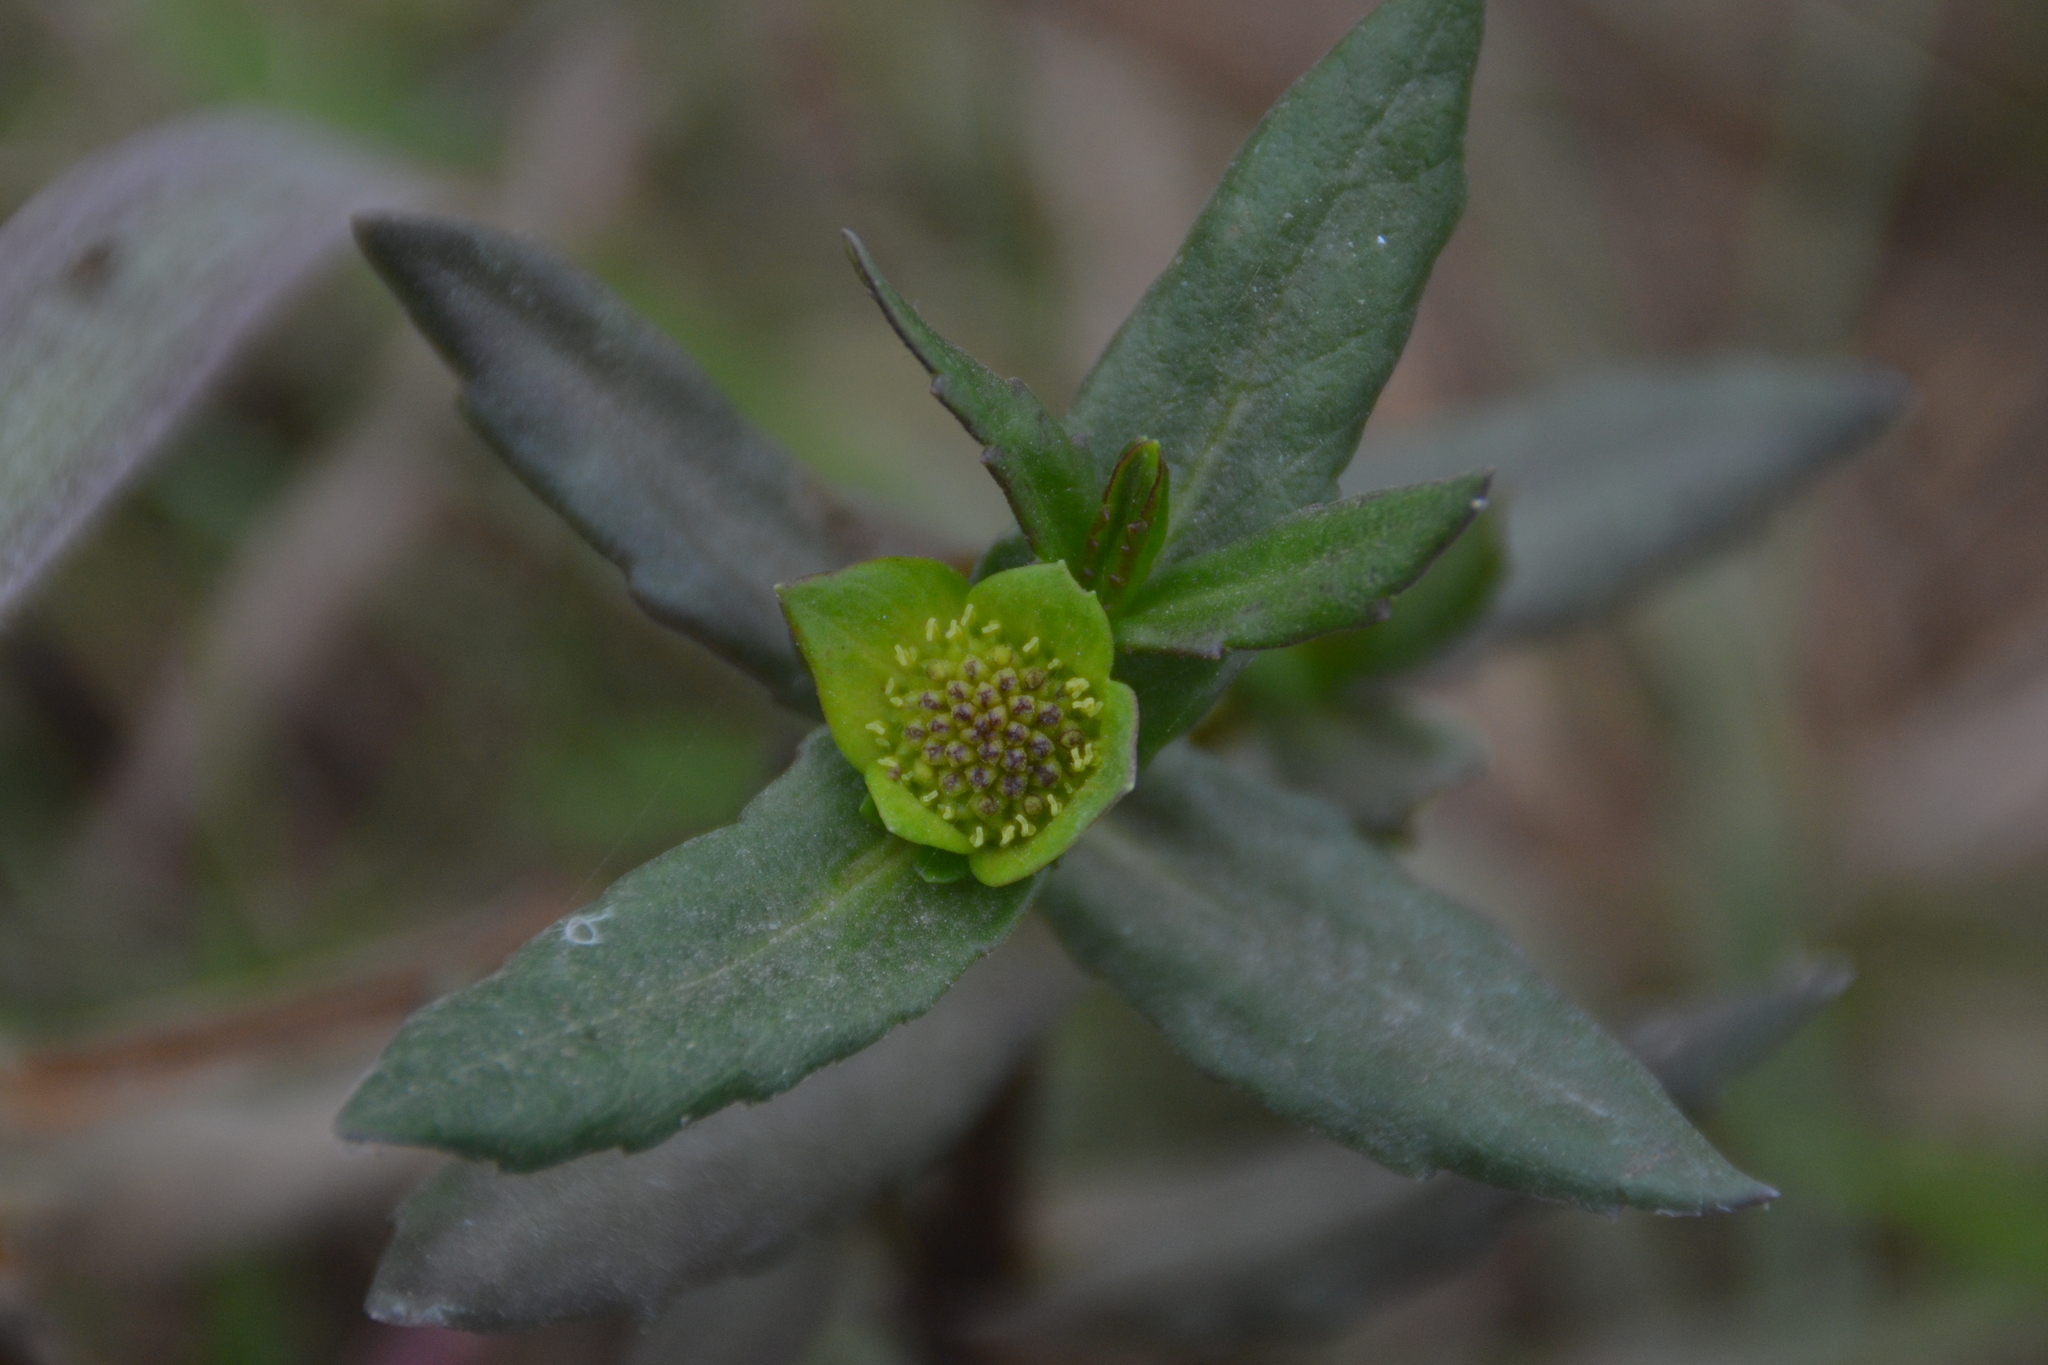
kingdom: Plantae
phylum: Tracheophyta
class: Magnoliopsida
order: Asterales
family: Asteraceae
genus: Enydra
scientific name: Enydra sessilifolia
